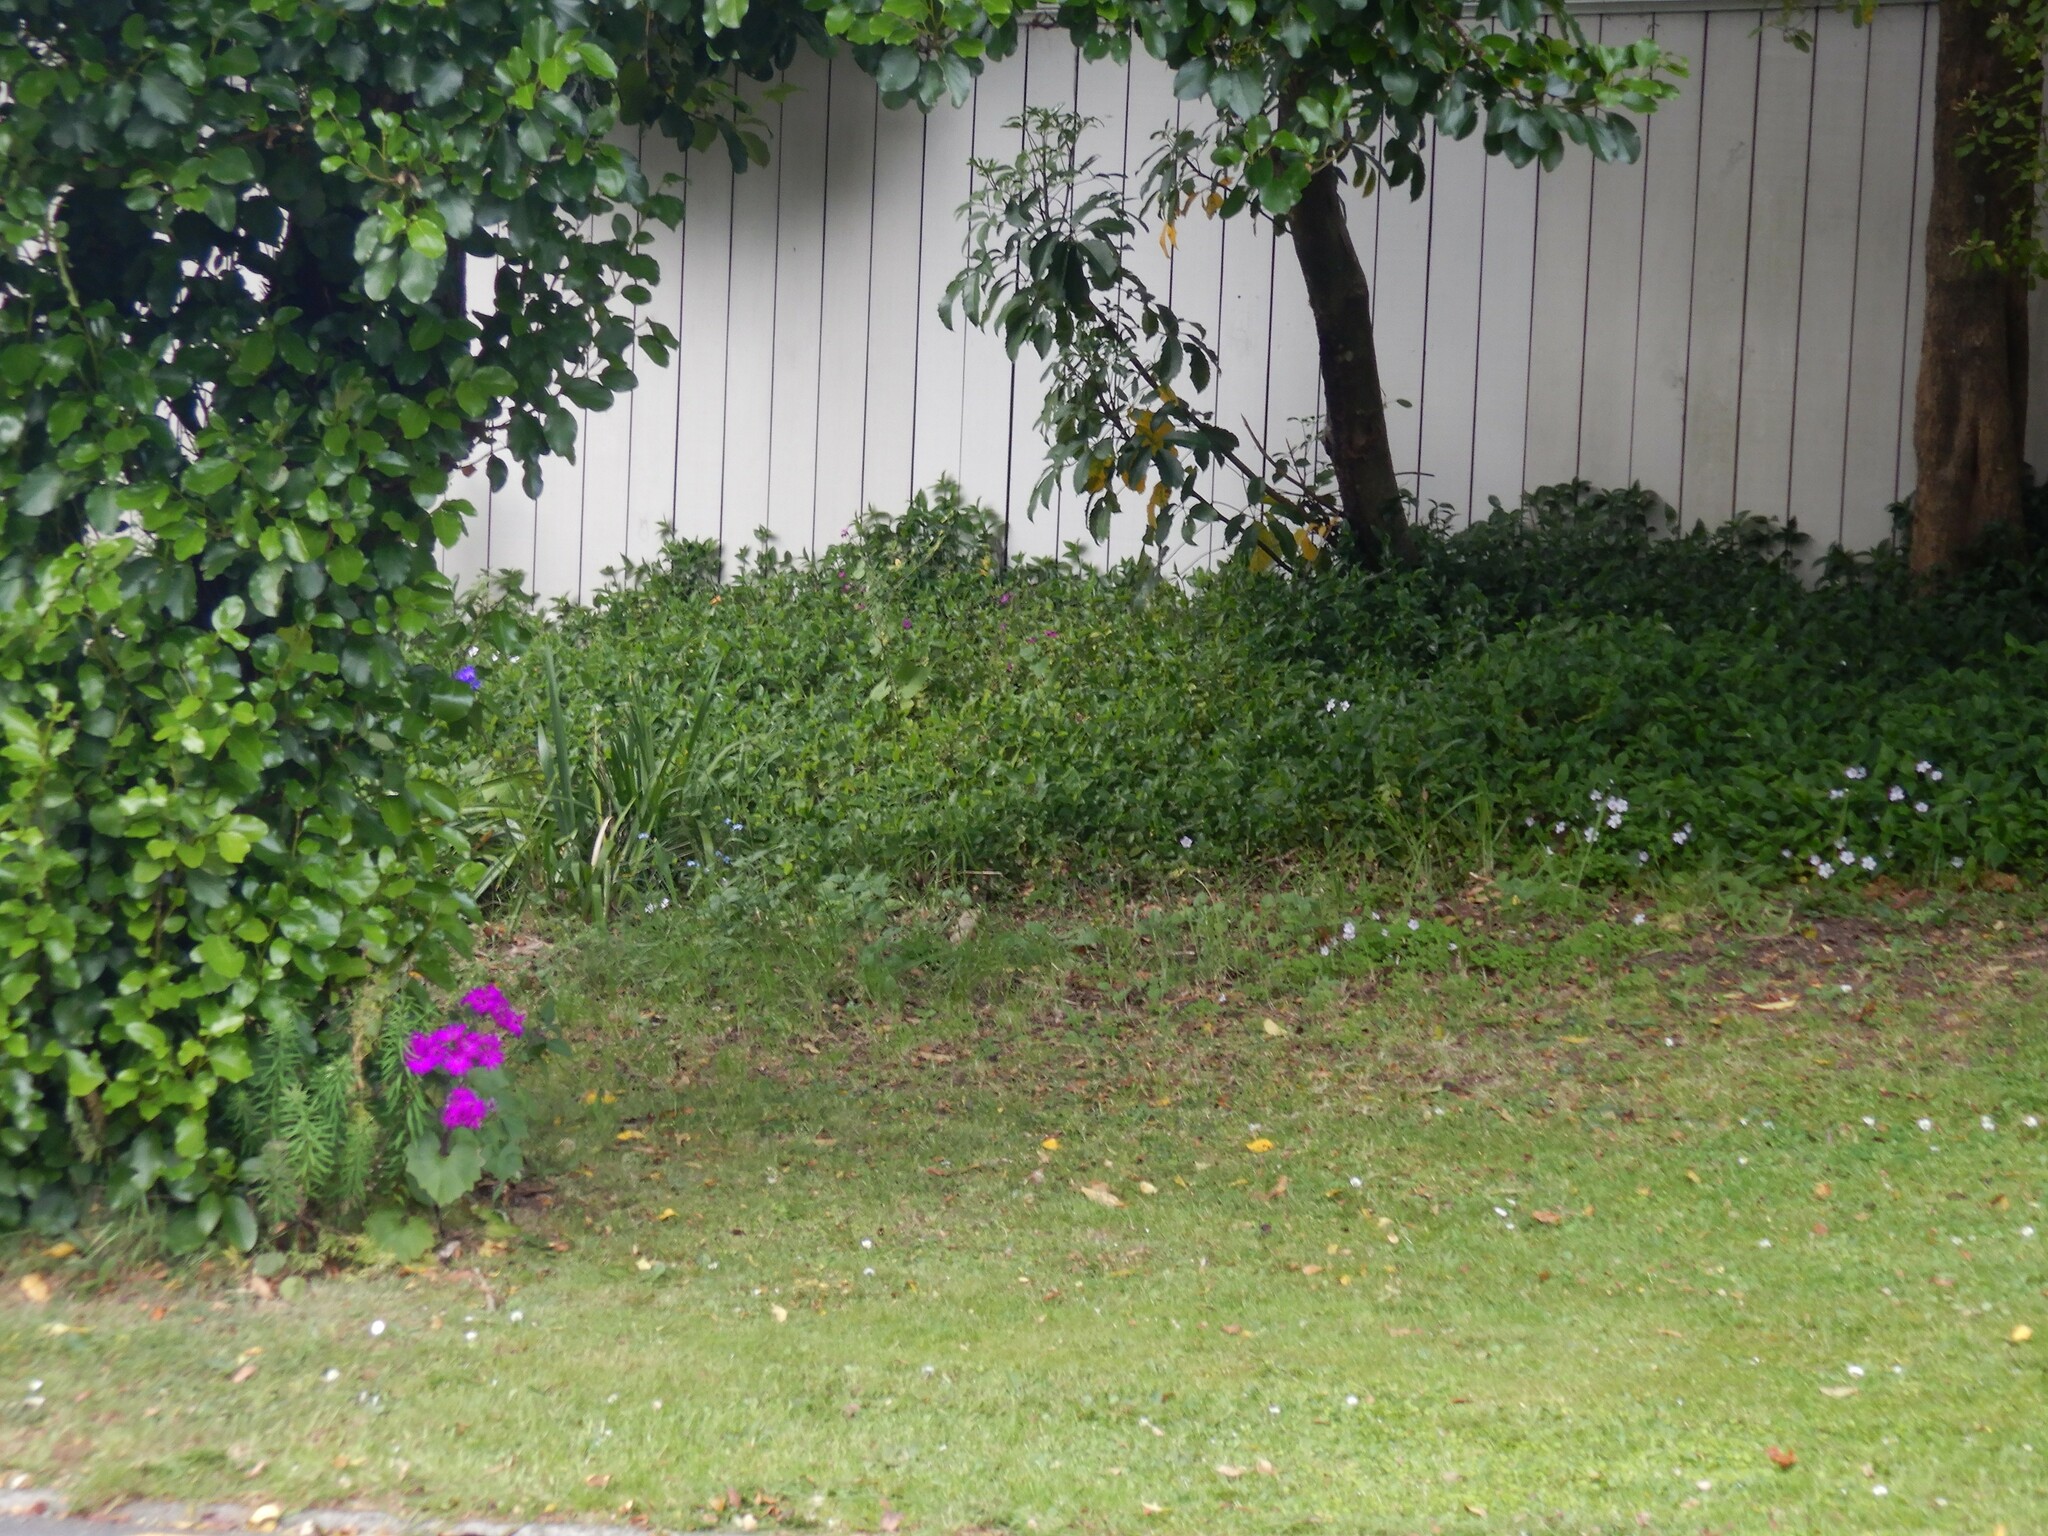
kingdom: Plantae
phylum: Tracheophyta
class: Magnoliopsida
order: Asterales
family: Asteraceae
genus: Pericallis
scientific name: Pericallis hybrida
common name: Cineraria
